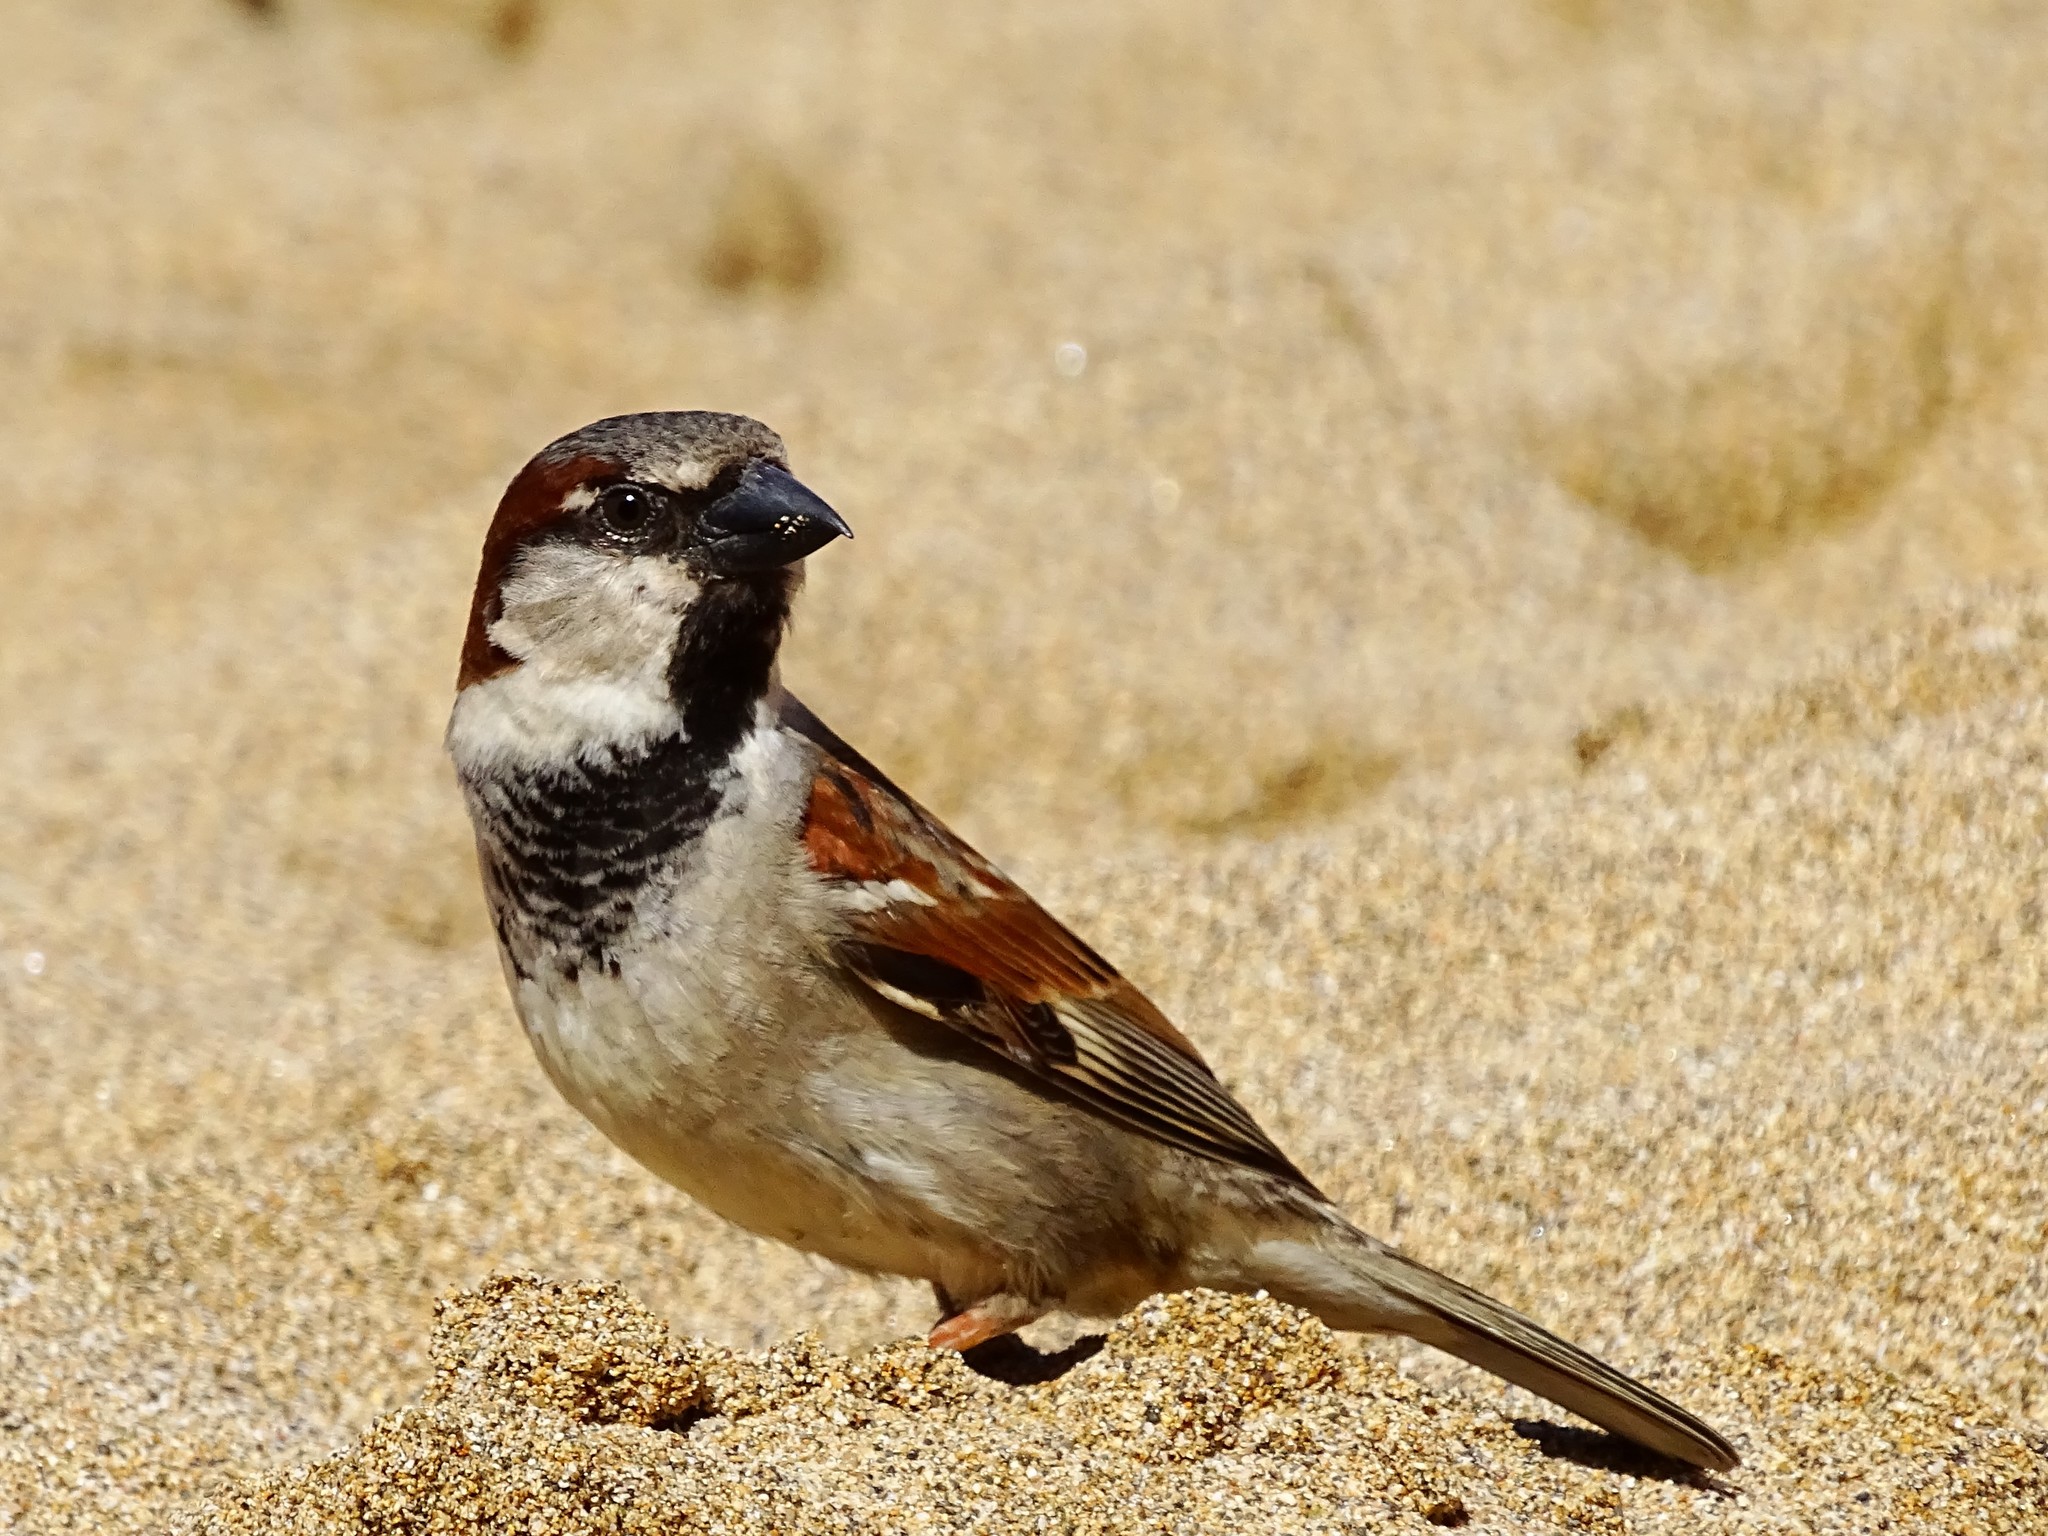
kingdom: Animalia
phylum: Chordata
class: Aves
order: Passeriformes
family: Passeridae
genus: Passer
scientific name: Passer domesticus
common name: House sparrow
